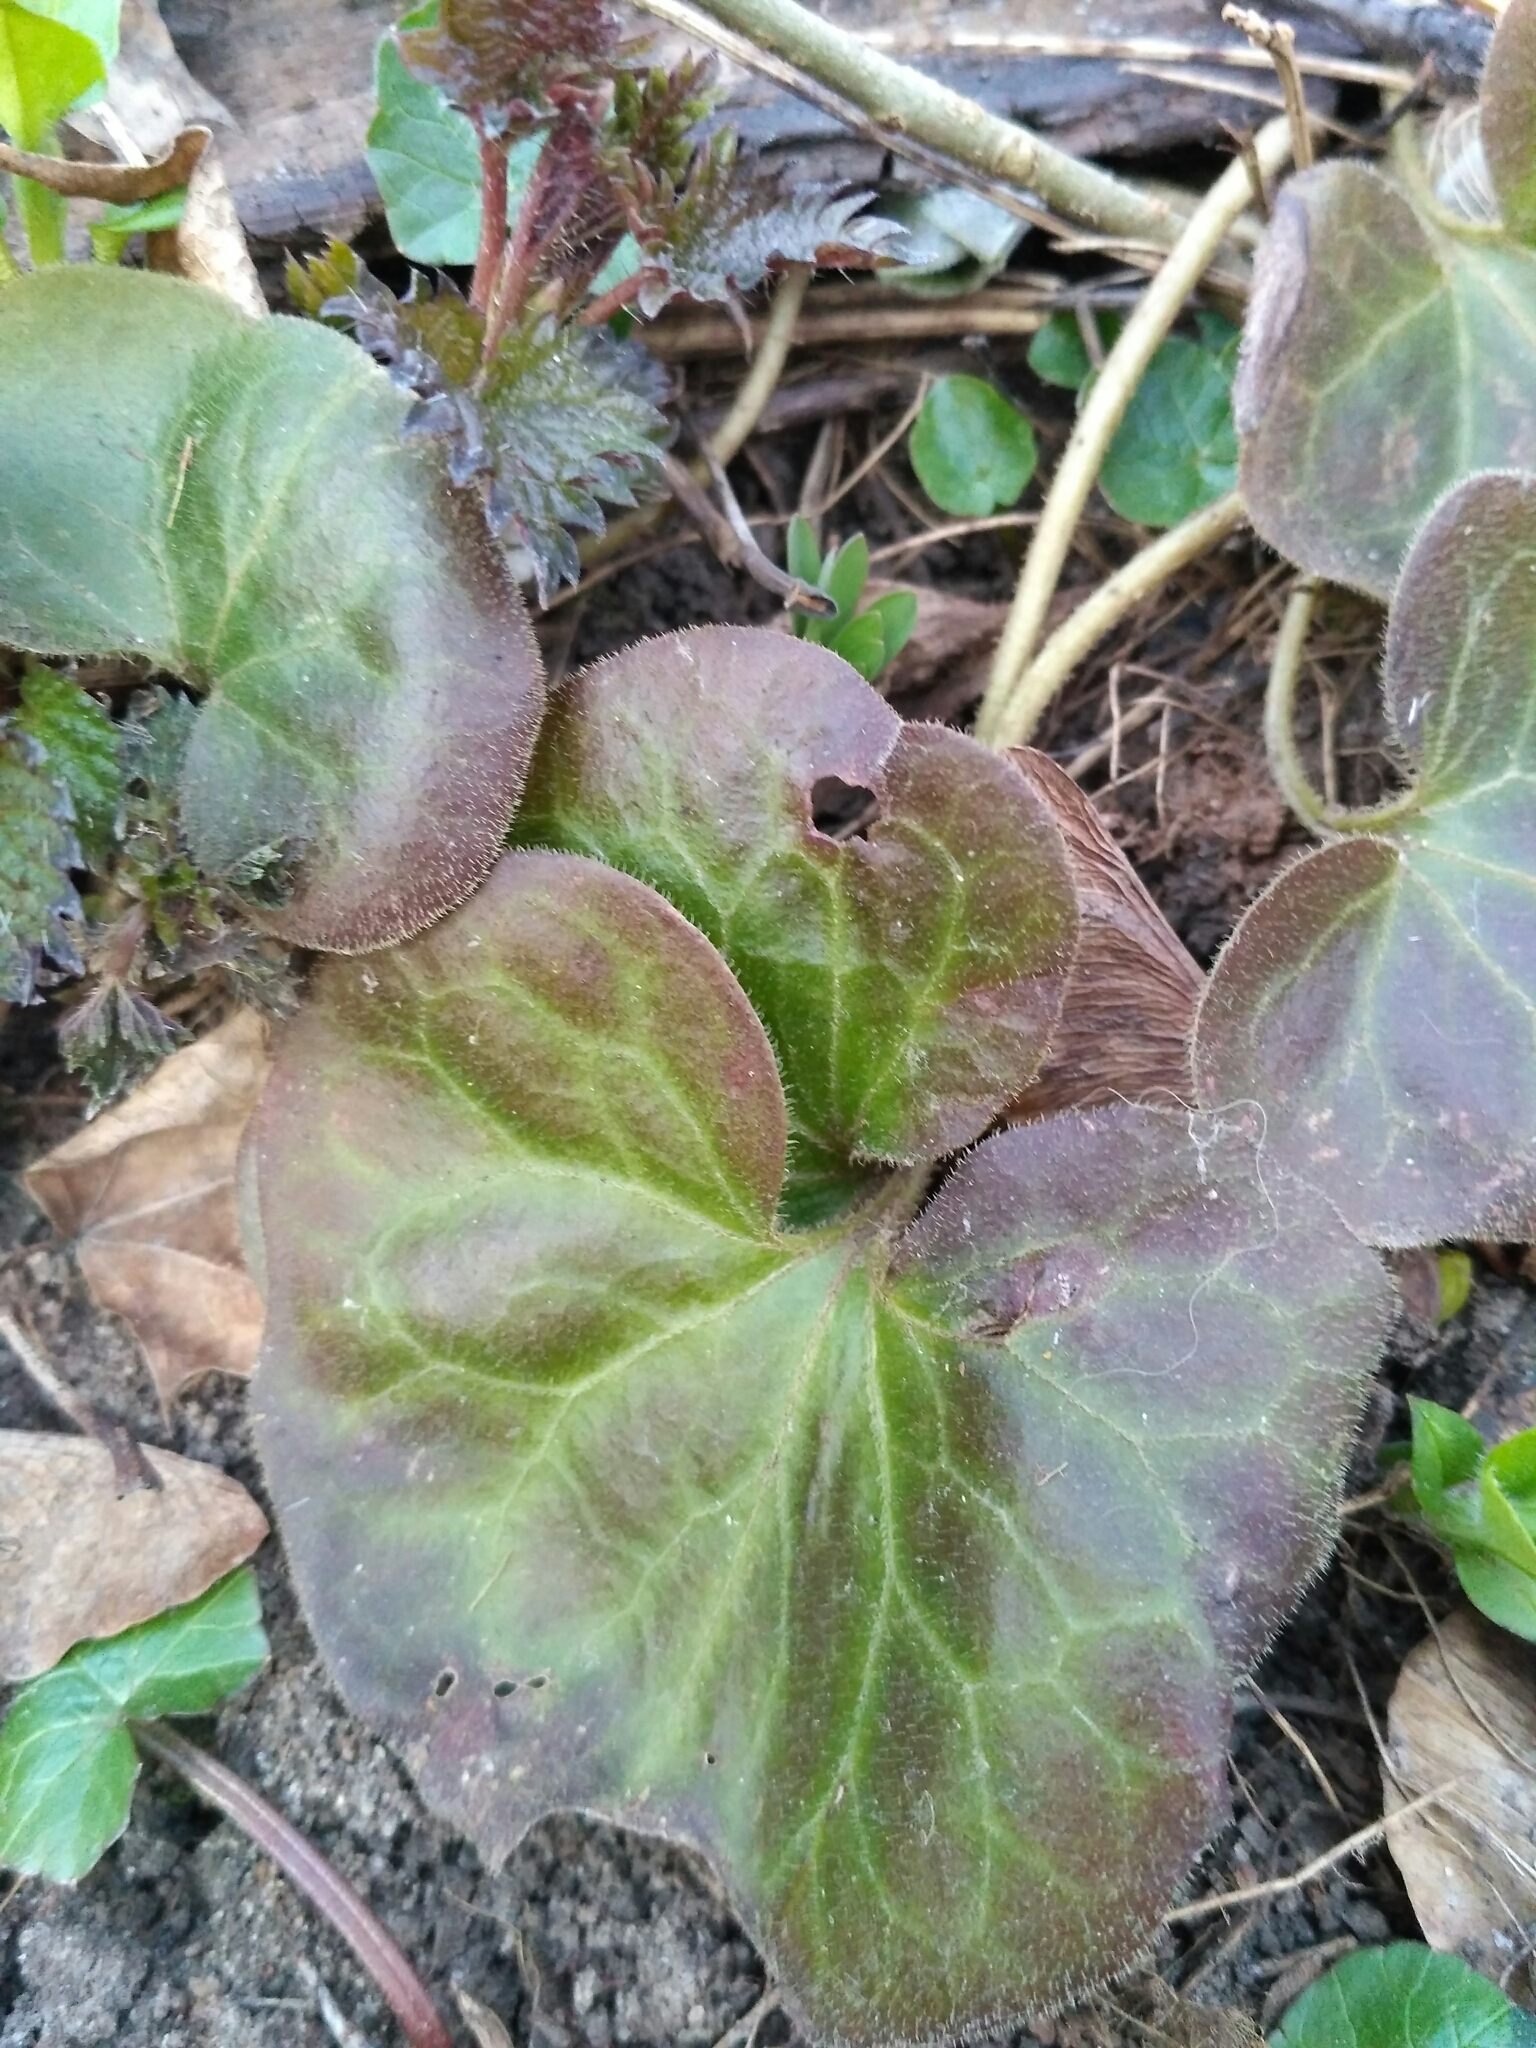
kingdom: Plantae
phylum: Tracheophyta
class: Magnoliopsida
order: Piperales
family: Aristolochiaceae
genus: Asarum
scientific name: Asarum europaeum
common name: Asarabacca
